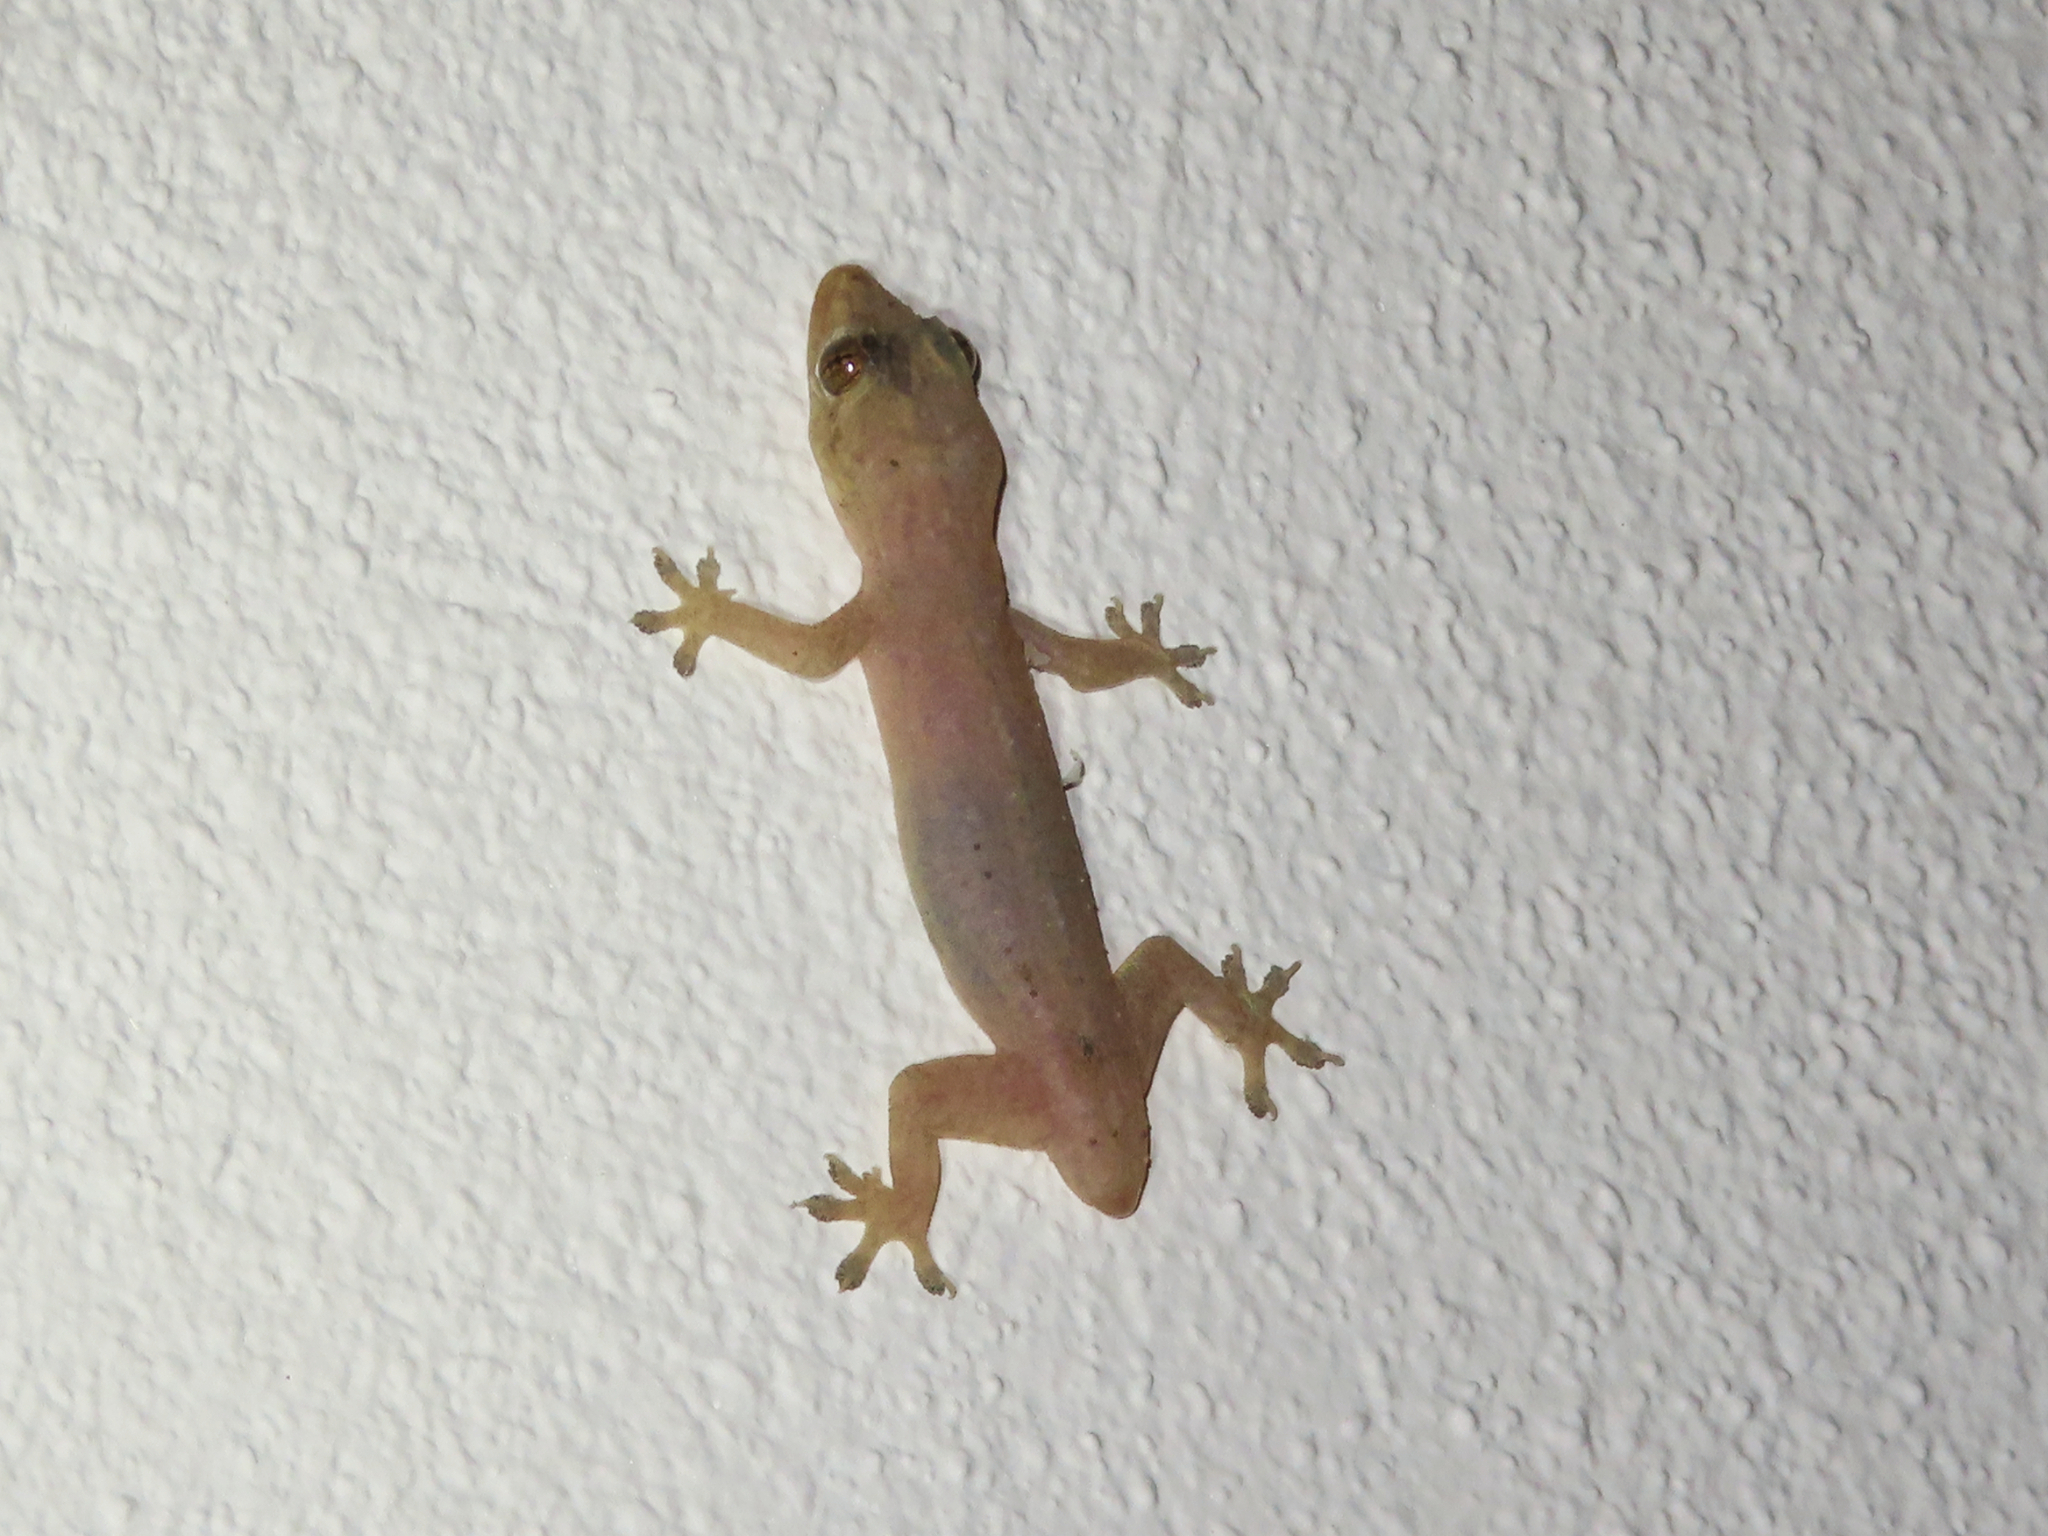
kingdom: Animalia
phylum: Chordata
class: Squamata
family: Gekkonidae
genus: Hemidactylus
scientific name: Hemidactylus frenatus
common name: Common house gecko
